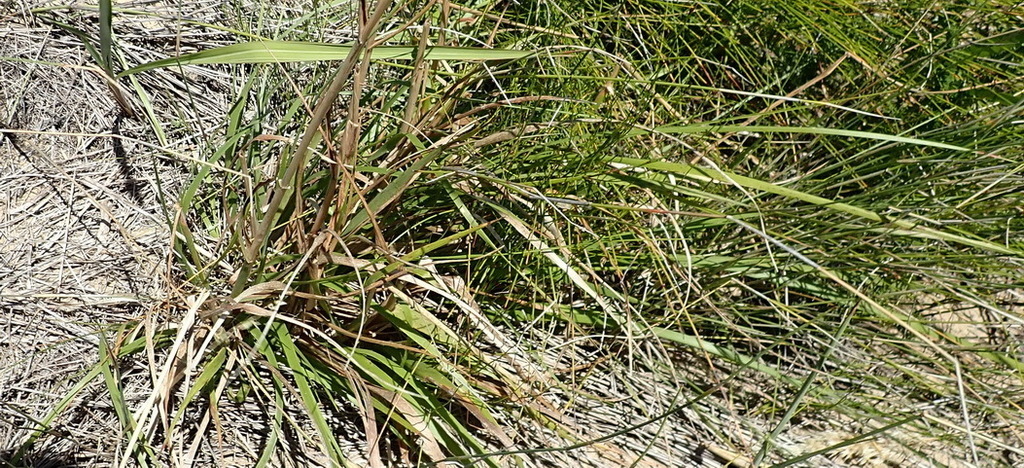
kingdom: Plantae
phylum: Tracheophyta
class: Liliopsida
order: Poales
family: Poaceae
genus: Pentameris
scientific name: Pentameris barbata
